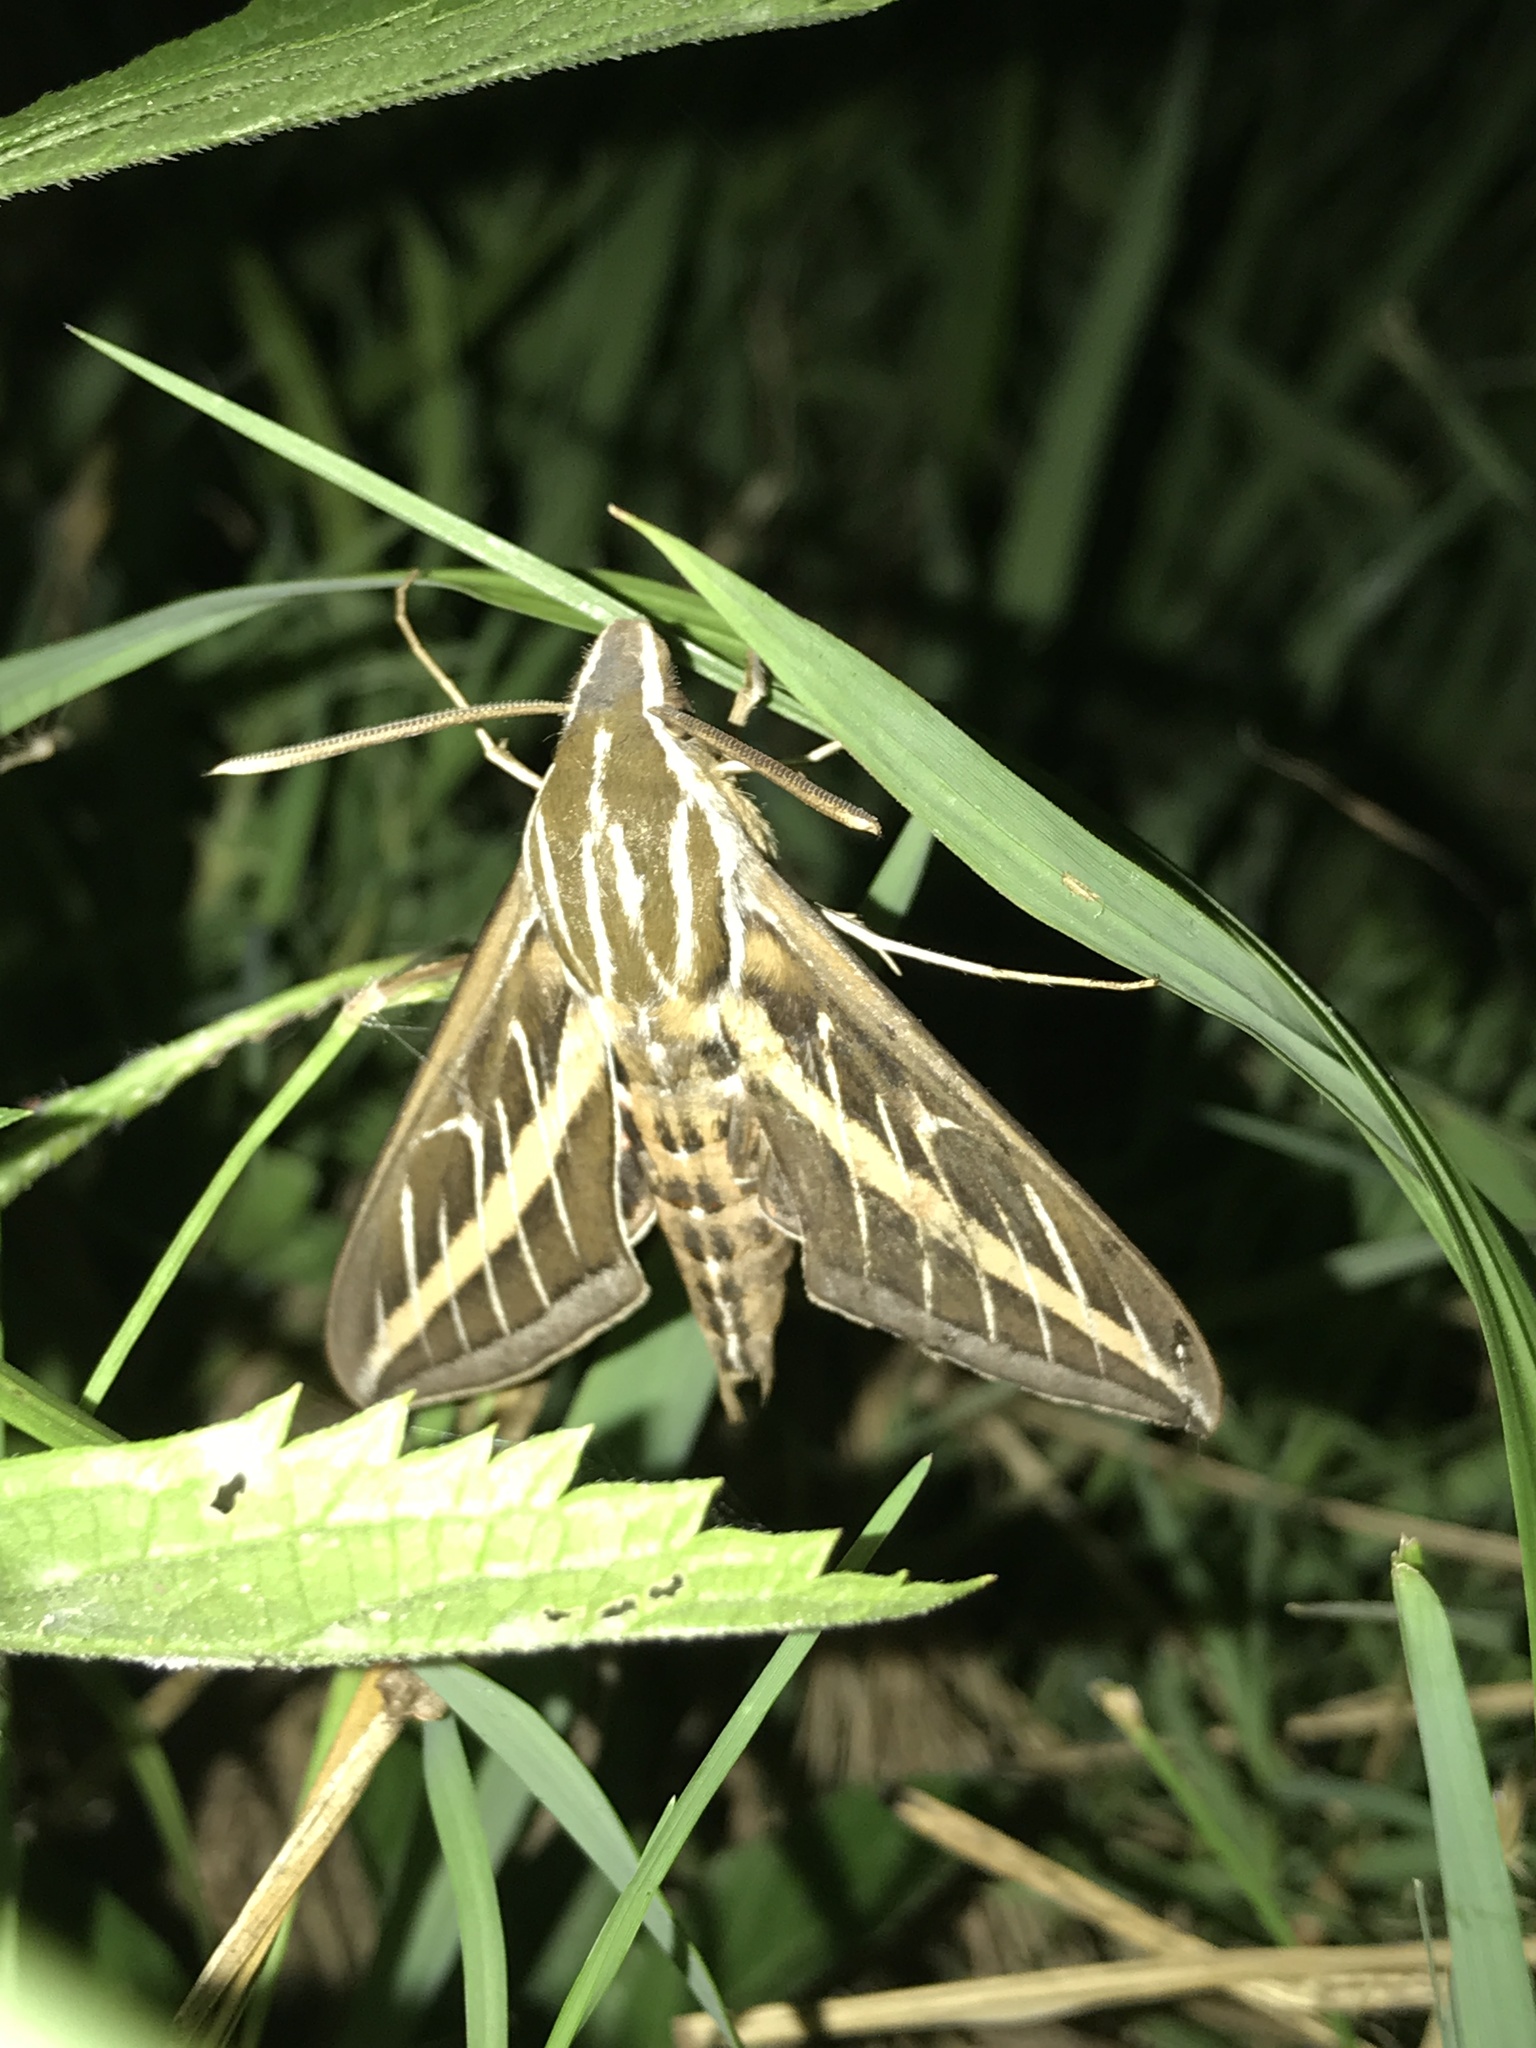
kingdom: Animalia
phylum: Arthropoda
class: Insecta
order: Lepidoptera
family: Sphingidae
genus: Hyles
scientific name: Hyles lineata
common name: White-lined sphinx
